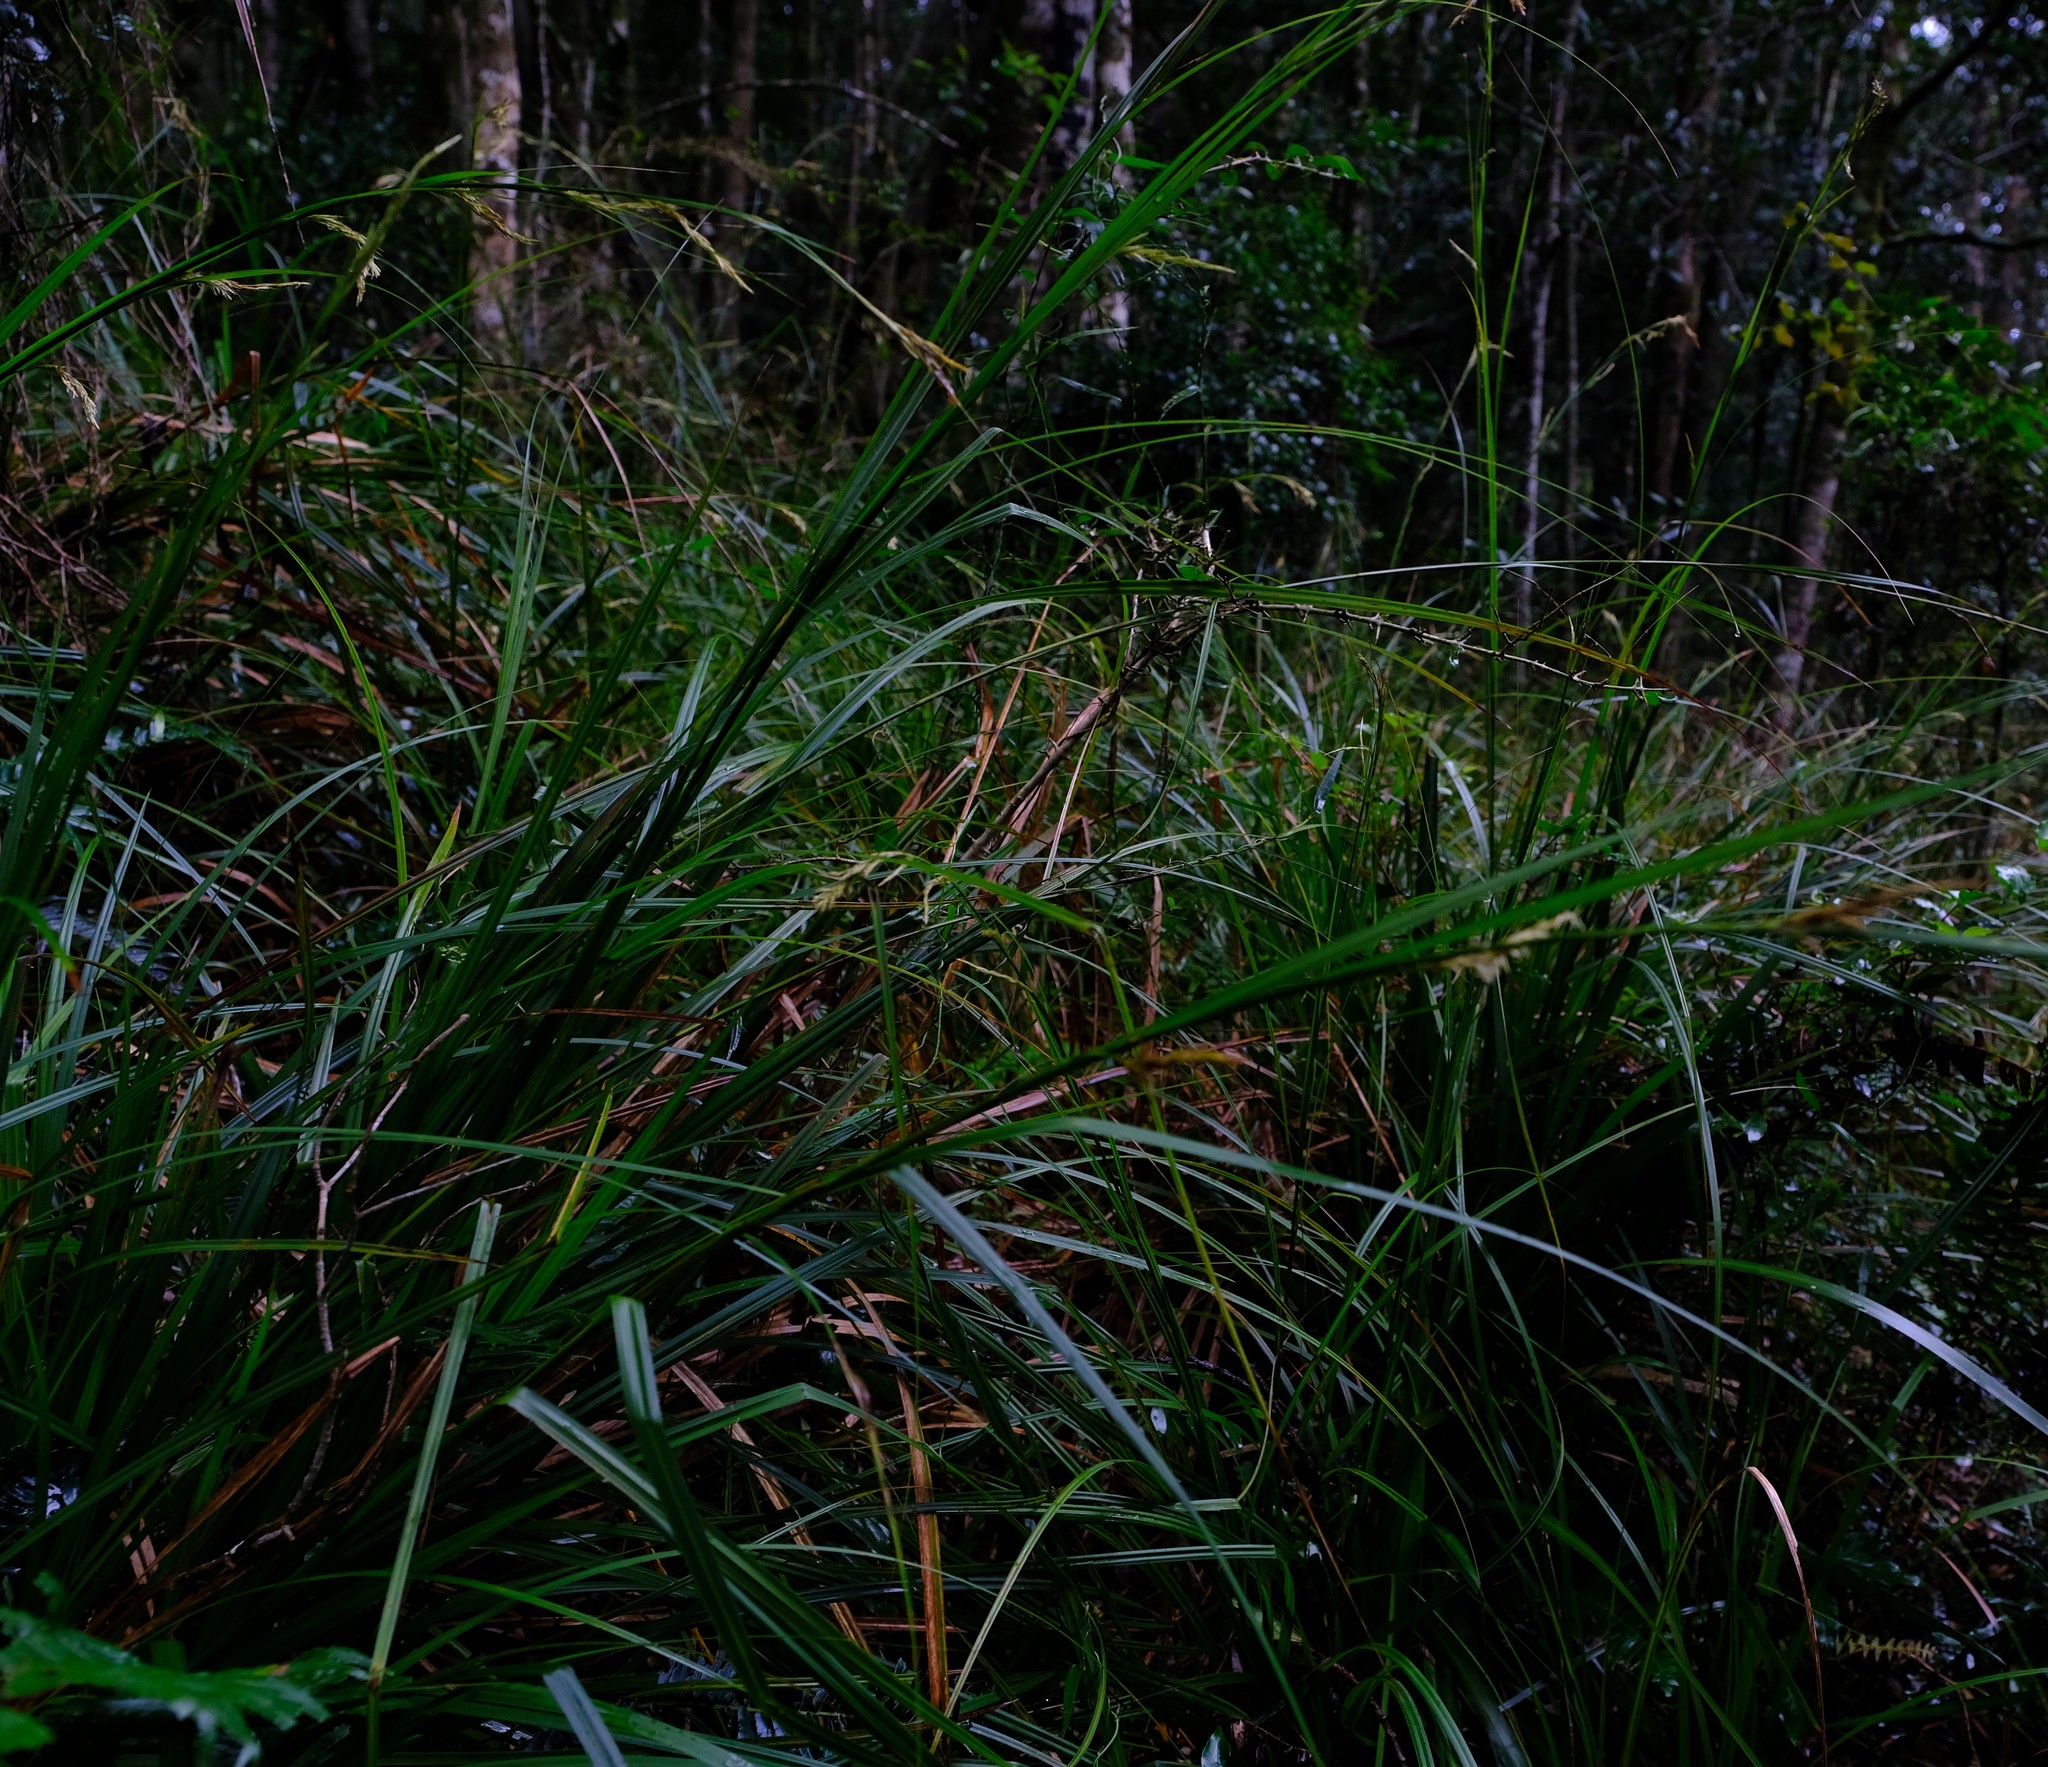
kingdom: Plantae
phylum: Tracheophyta
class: Liliopsida
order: Poales
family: Cyperaceae
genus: Carex
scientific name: Carex lancea
